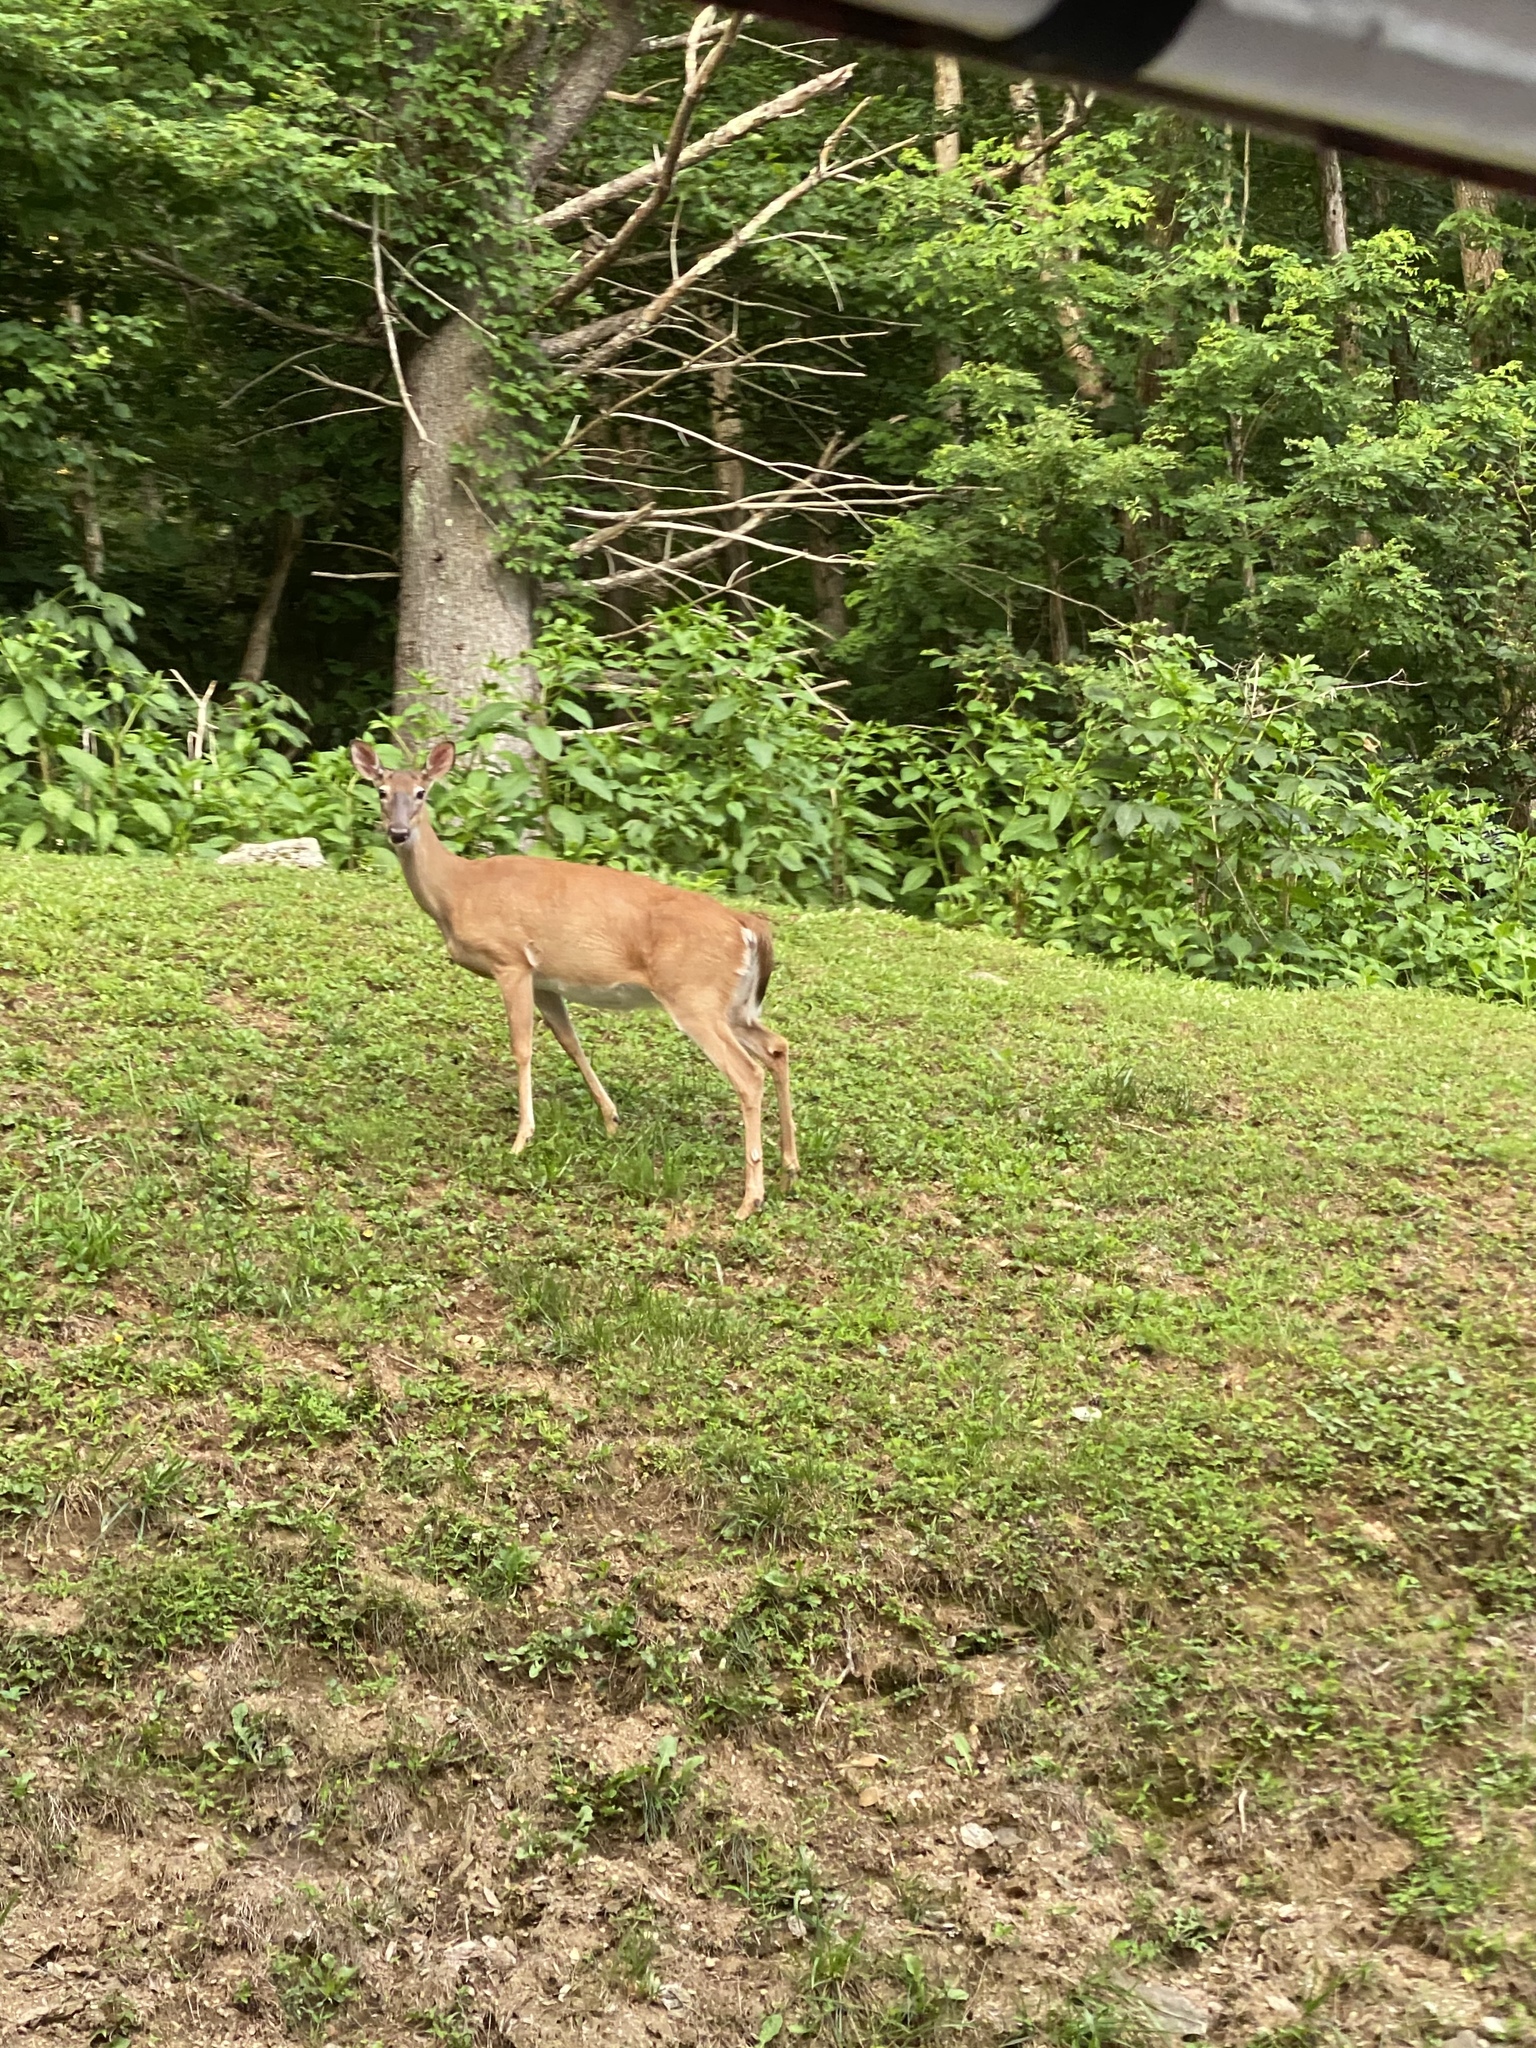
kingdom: Animalia
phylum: Chordata
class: Mammalia
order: Artiodactyla
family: Cervidae
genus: Odocoileus
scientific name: Odocoileus virginianus
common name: White-tailed deer
